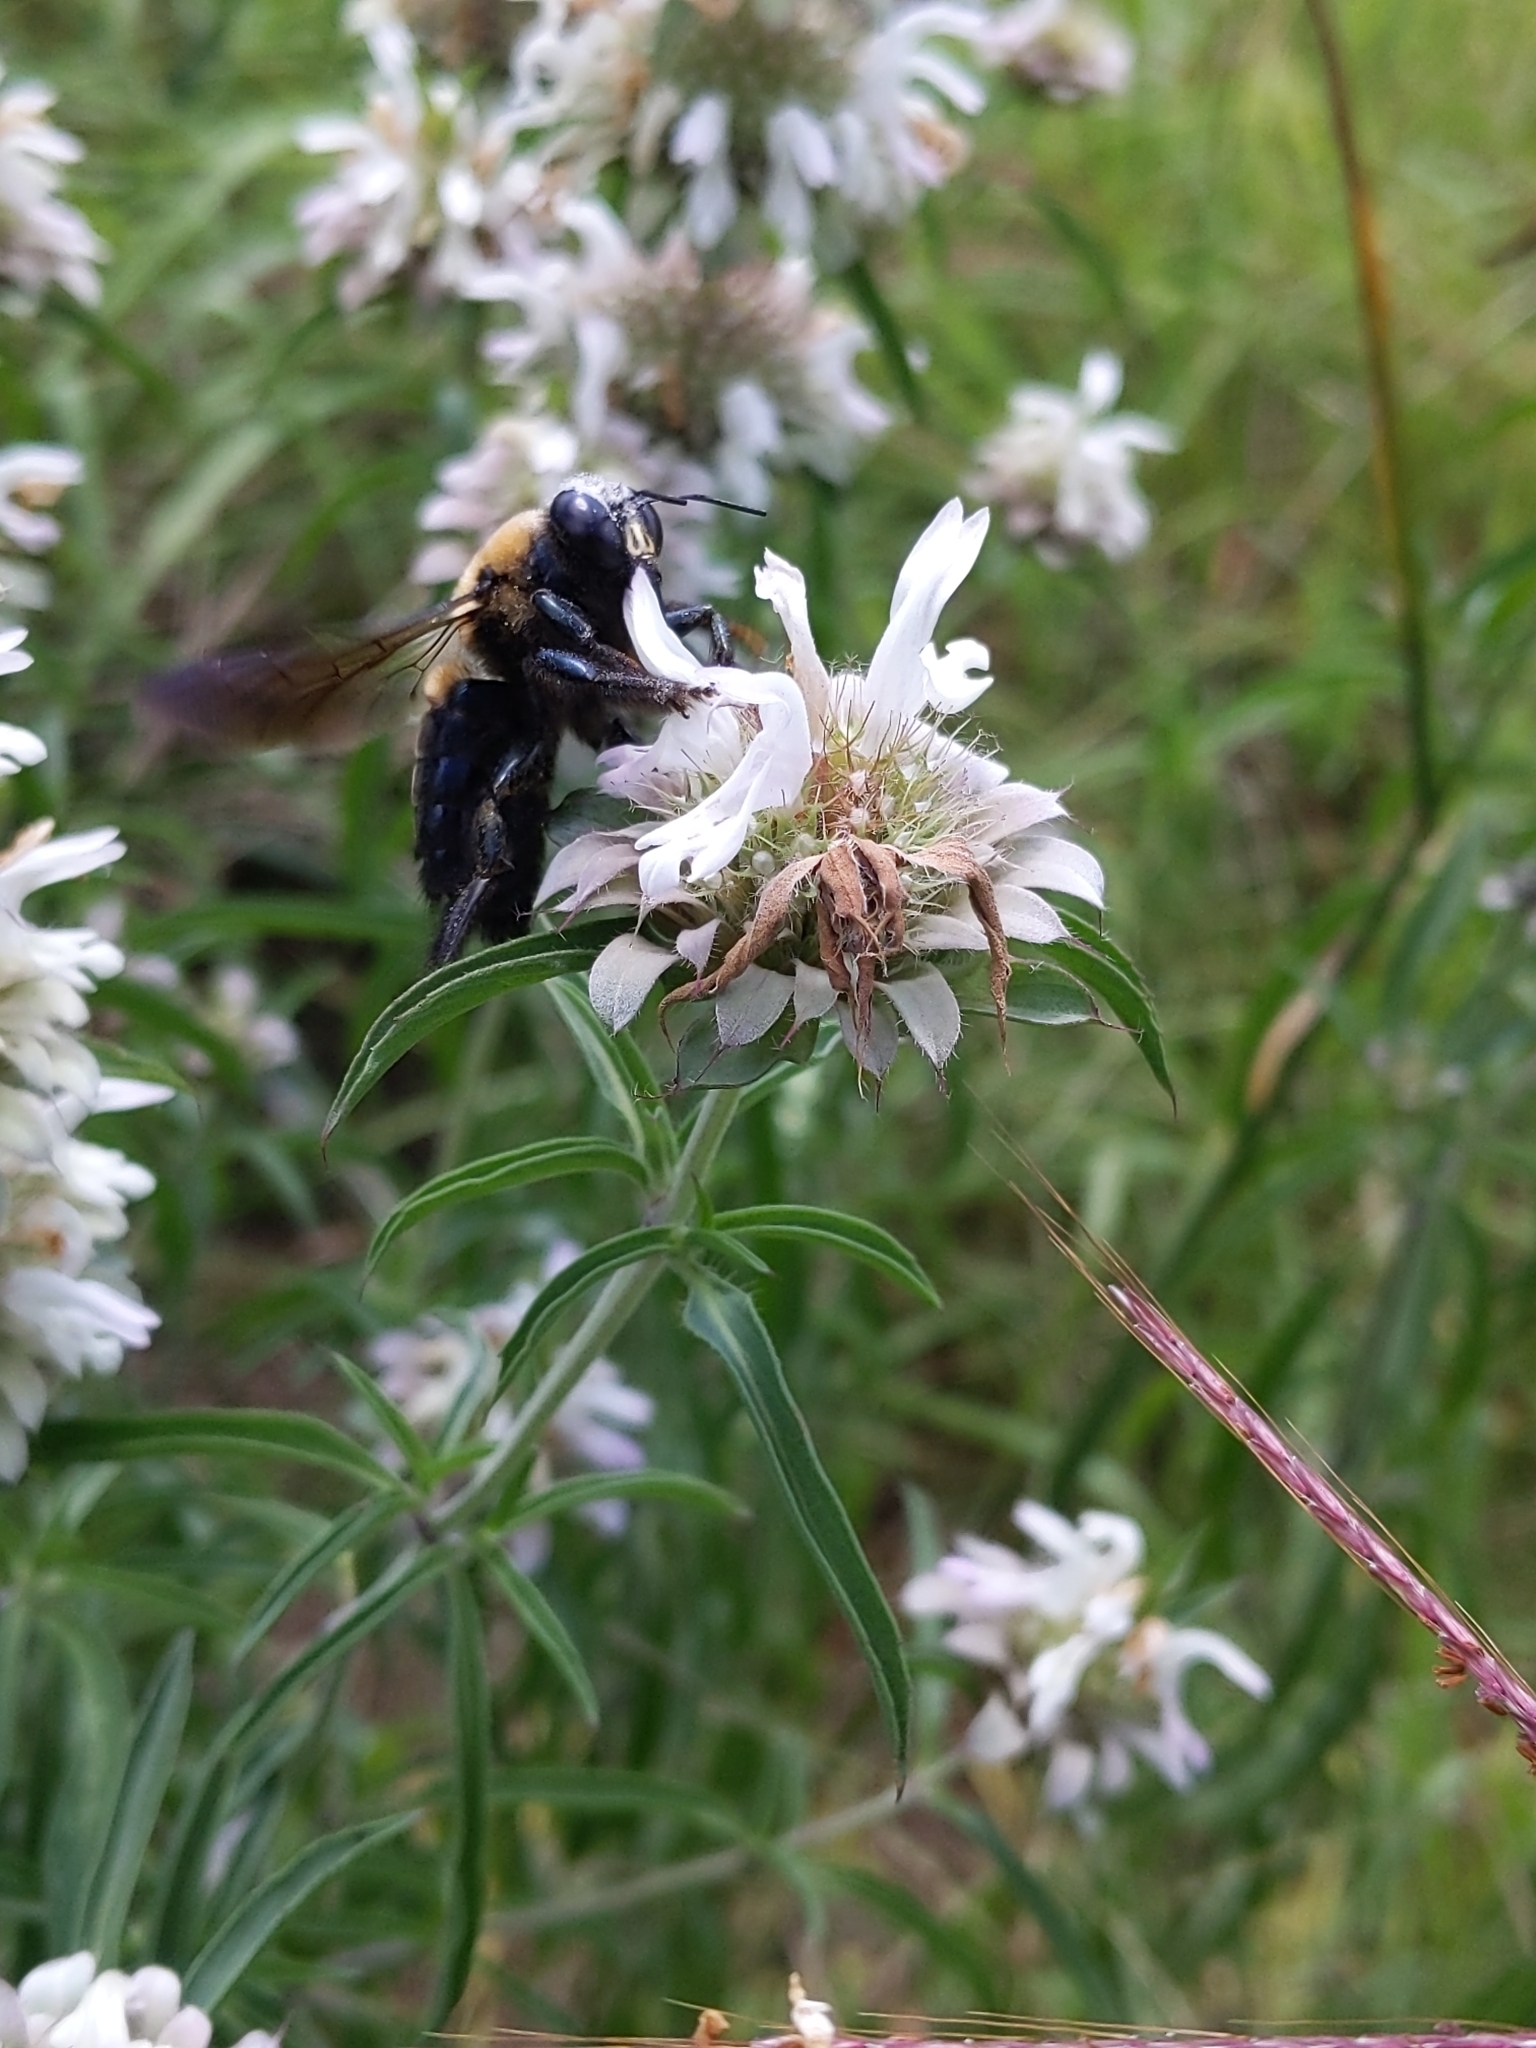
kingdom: Animalia
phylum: Arthropoda
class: Insecta
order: Hymenoptera
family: Apidae
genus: Xylocopa
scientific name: Xylocopa virginica
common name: Carpenter bee
